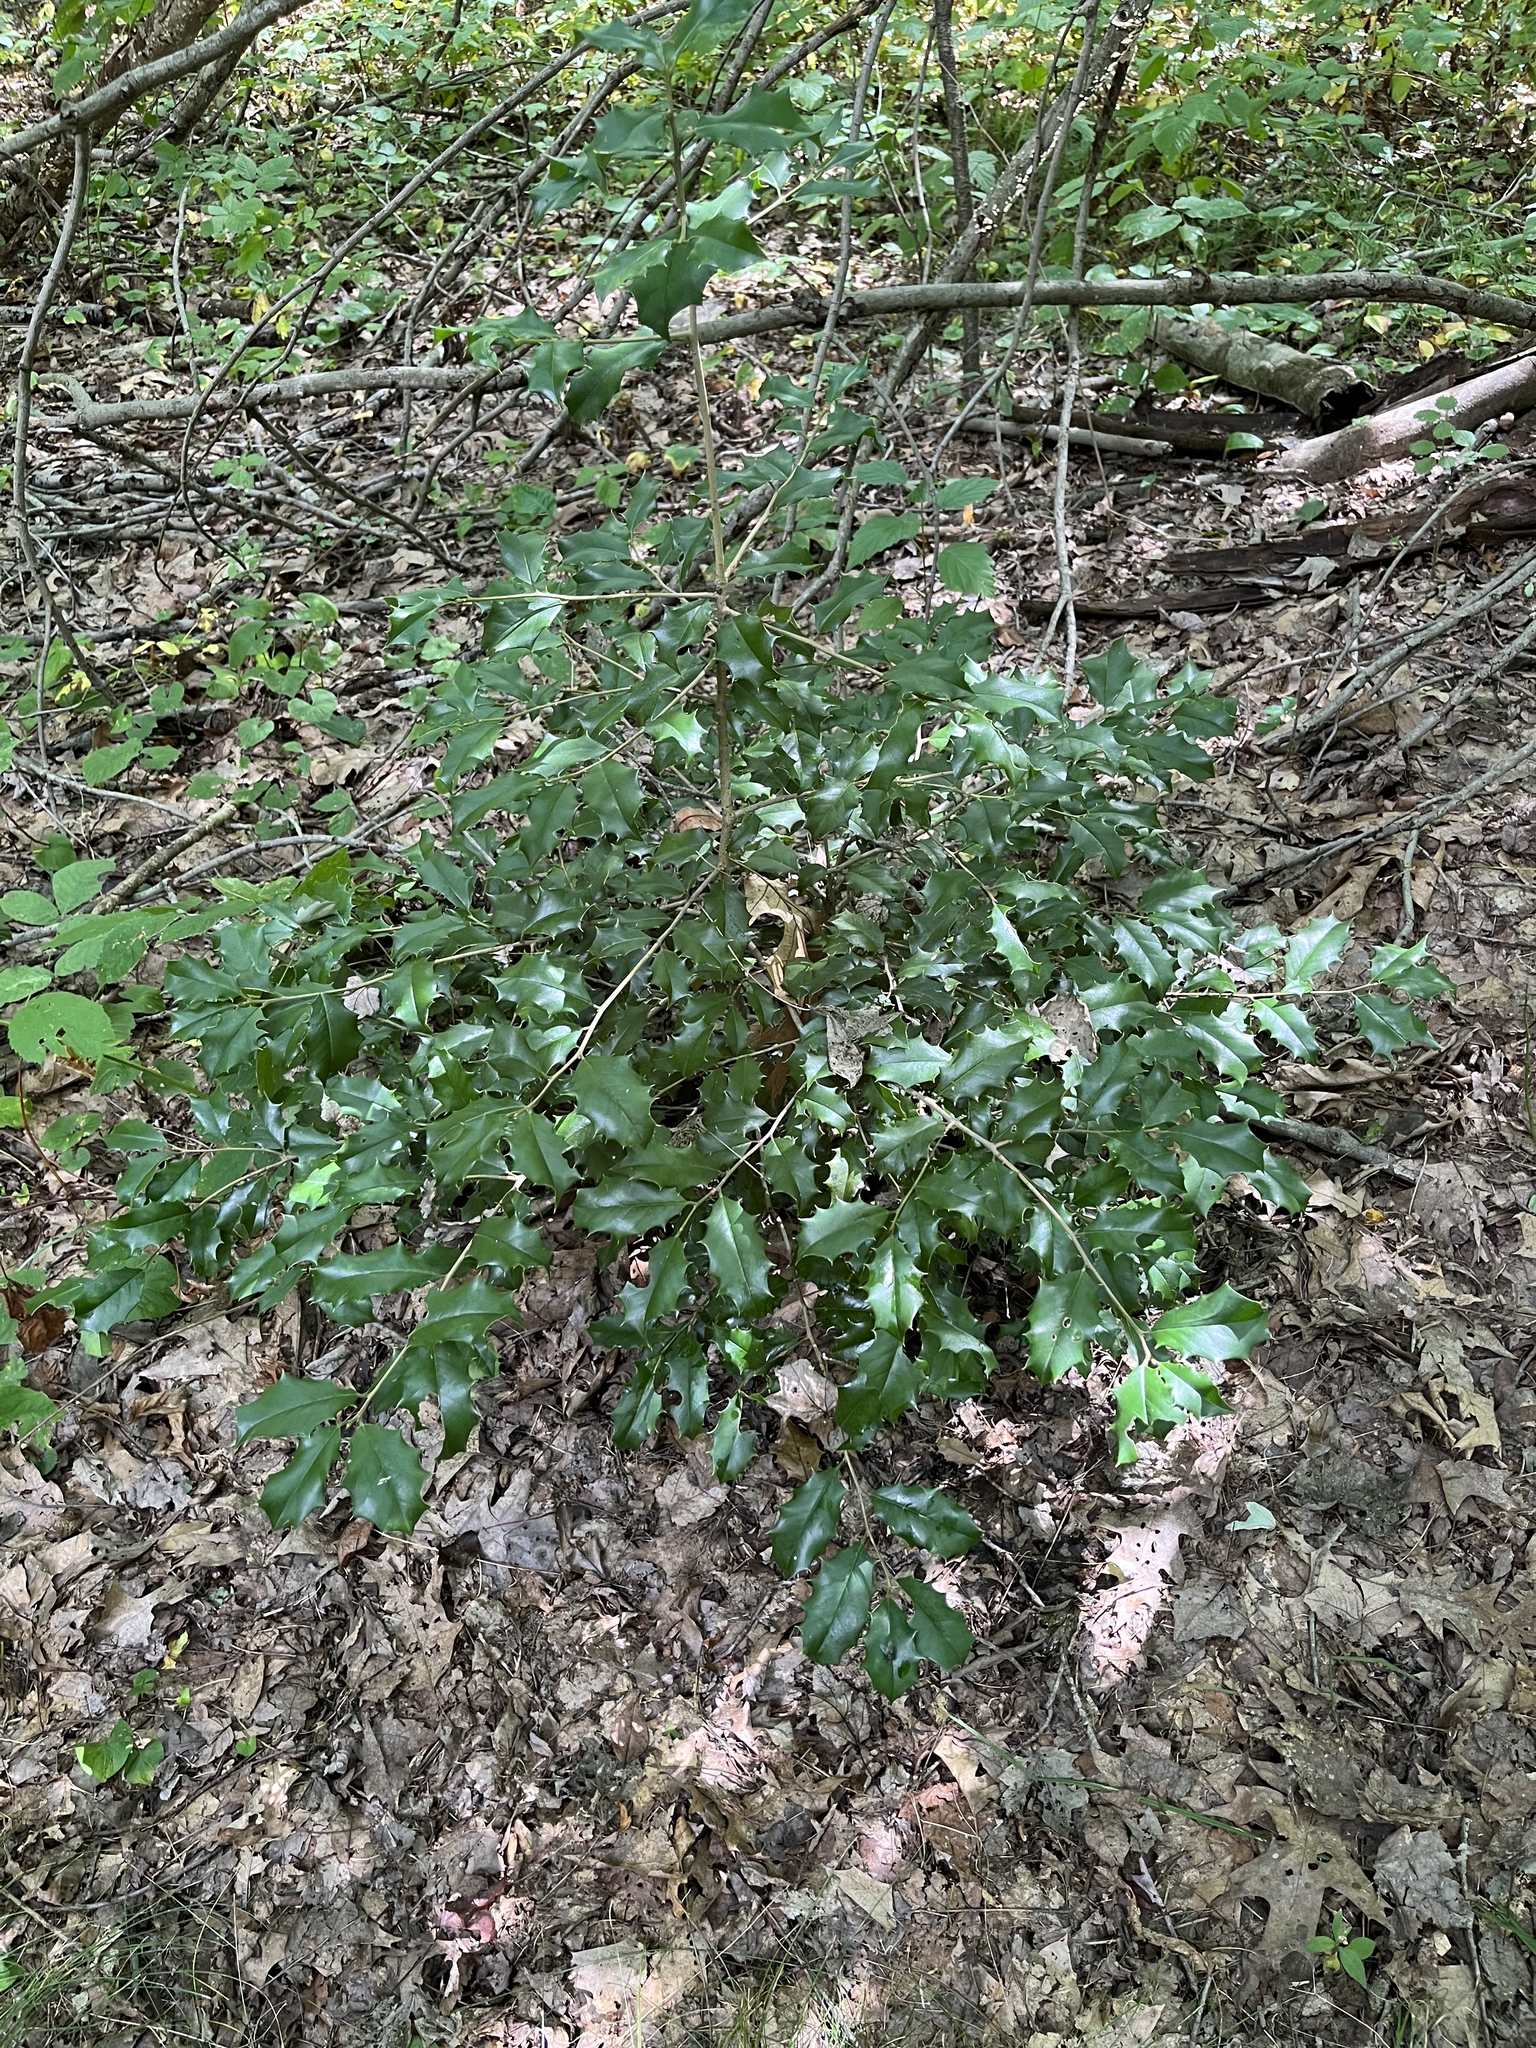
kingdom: Plantae
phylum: Tracheophyta
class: Magnoliopsida
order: Aquifoliales
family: Aquifoliaceae
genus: Ilex
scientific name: Ilex opaca
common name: American holly
